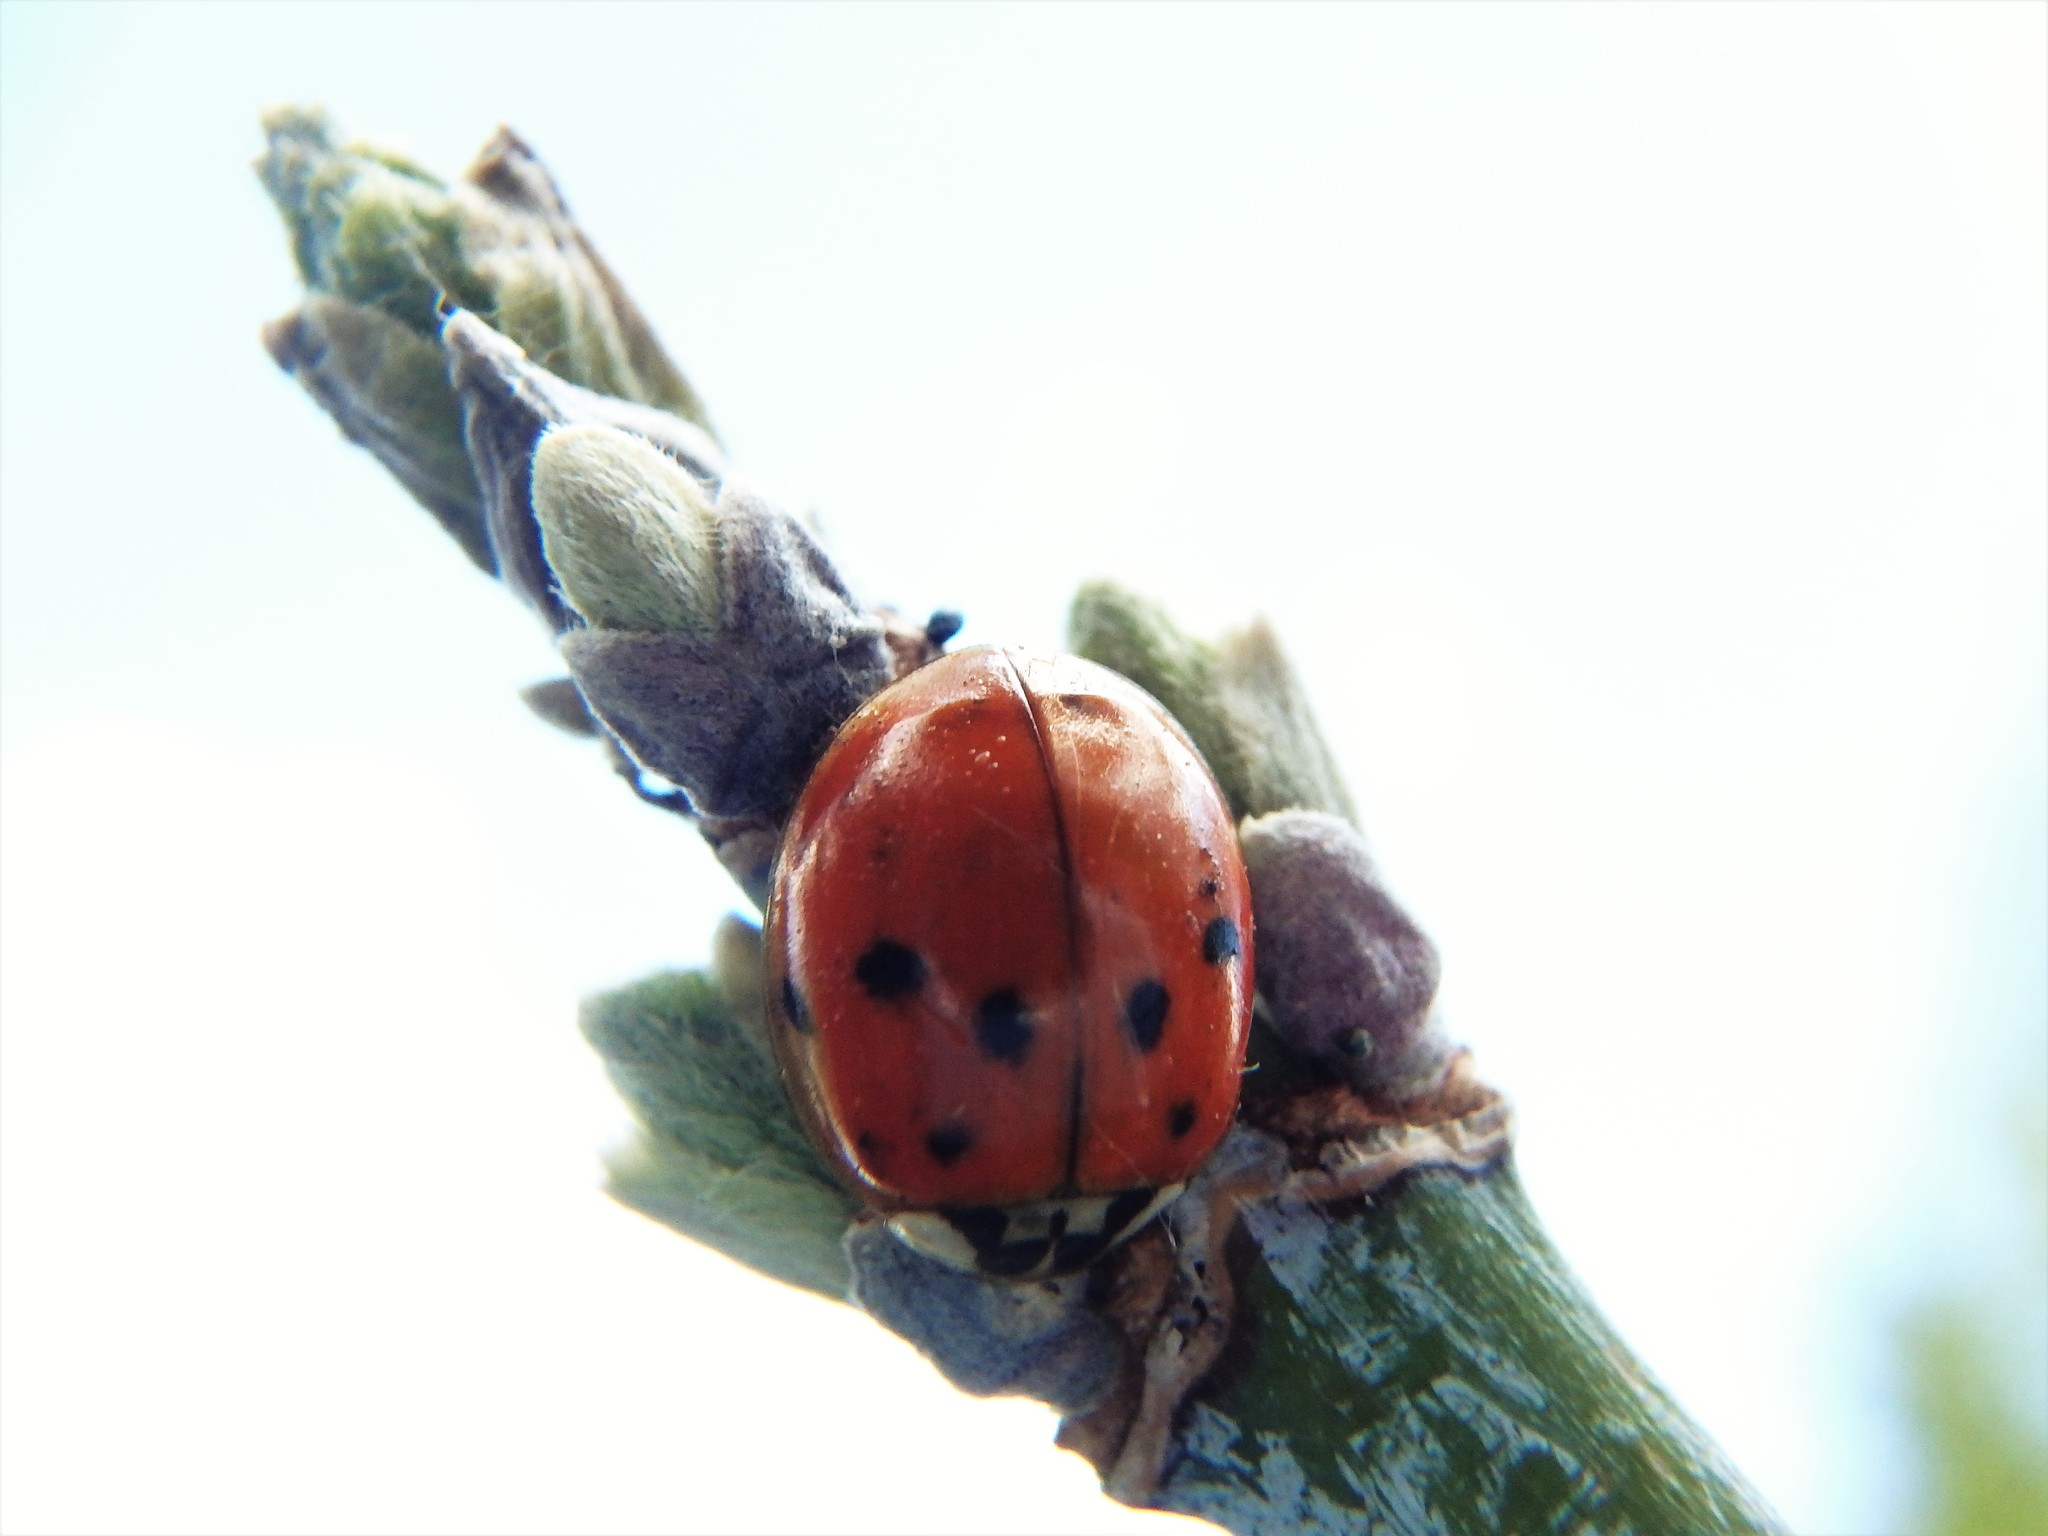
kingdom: Animalia
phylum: Arthropoda
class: Insecta
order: Coleoptera
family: Coccinellidae
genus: Harmonia
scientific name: Harmonia axyridis
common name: Harlequin ladybird
